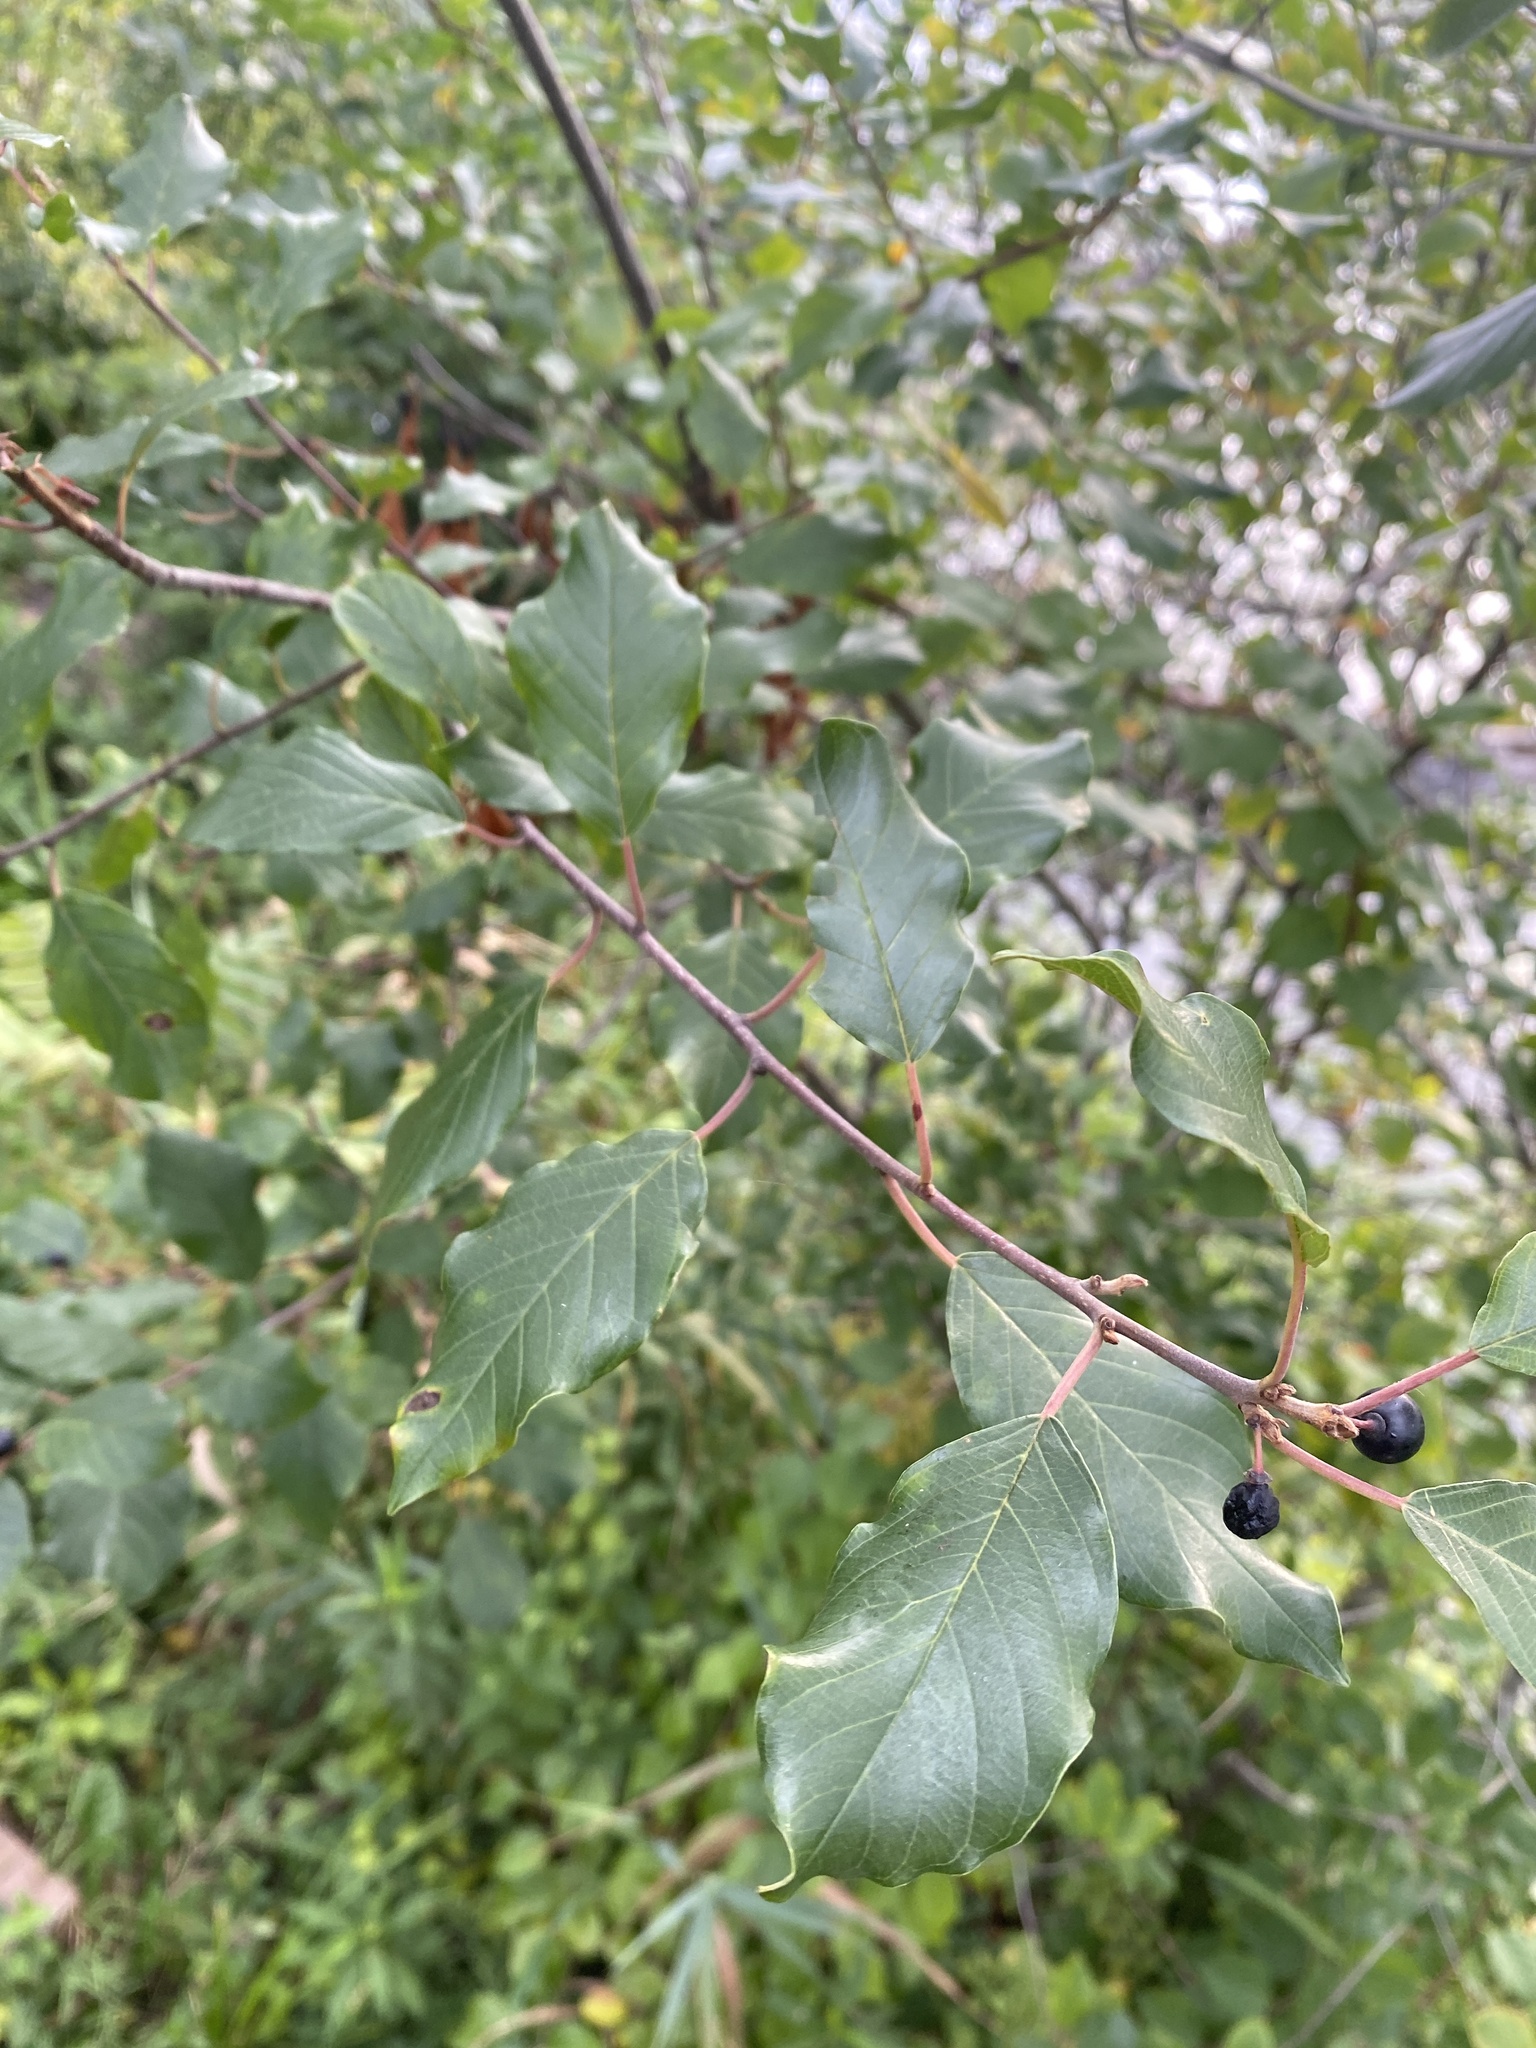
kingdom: Plantae
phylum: Tracheophyta
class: Magnoliopsida
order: Rosales
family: Rhamnaceae
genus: Frangula
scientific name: Frangula alnus
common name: Alder buckthorn
